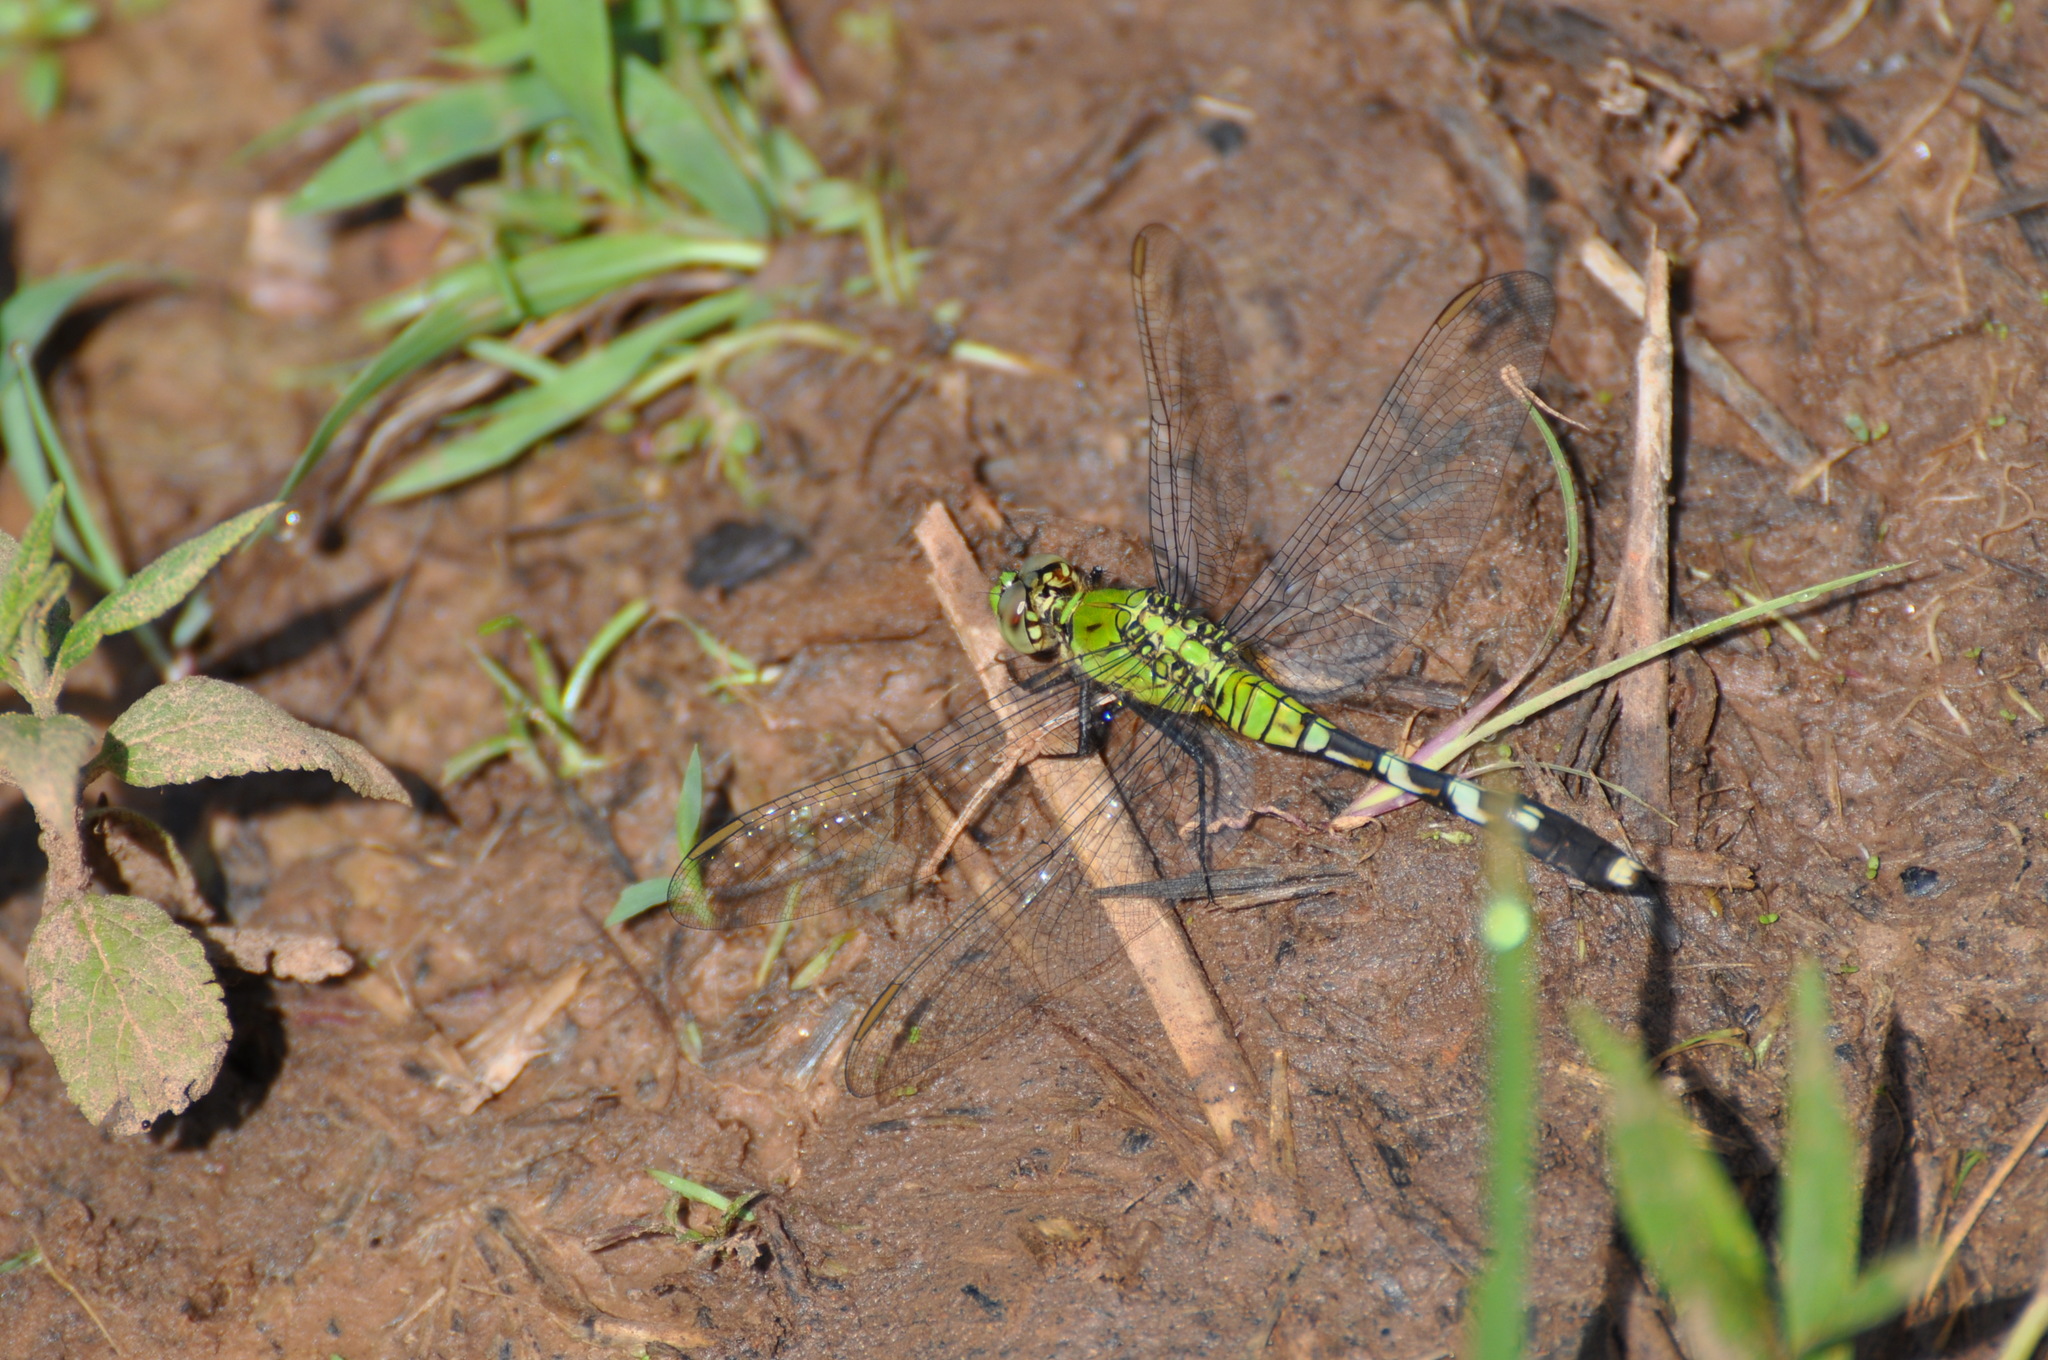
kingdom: Animalia
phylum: Arthropoda
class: Insecta
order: Odonata
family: Libellulidae
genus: Erythemis
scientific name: Erythemis simplicicollis
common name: Eastern pondhawk
